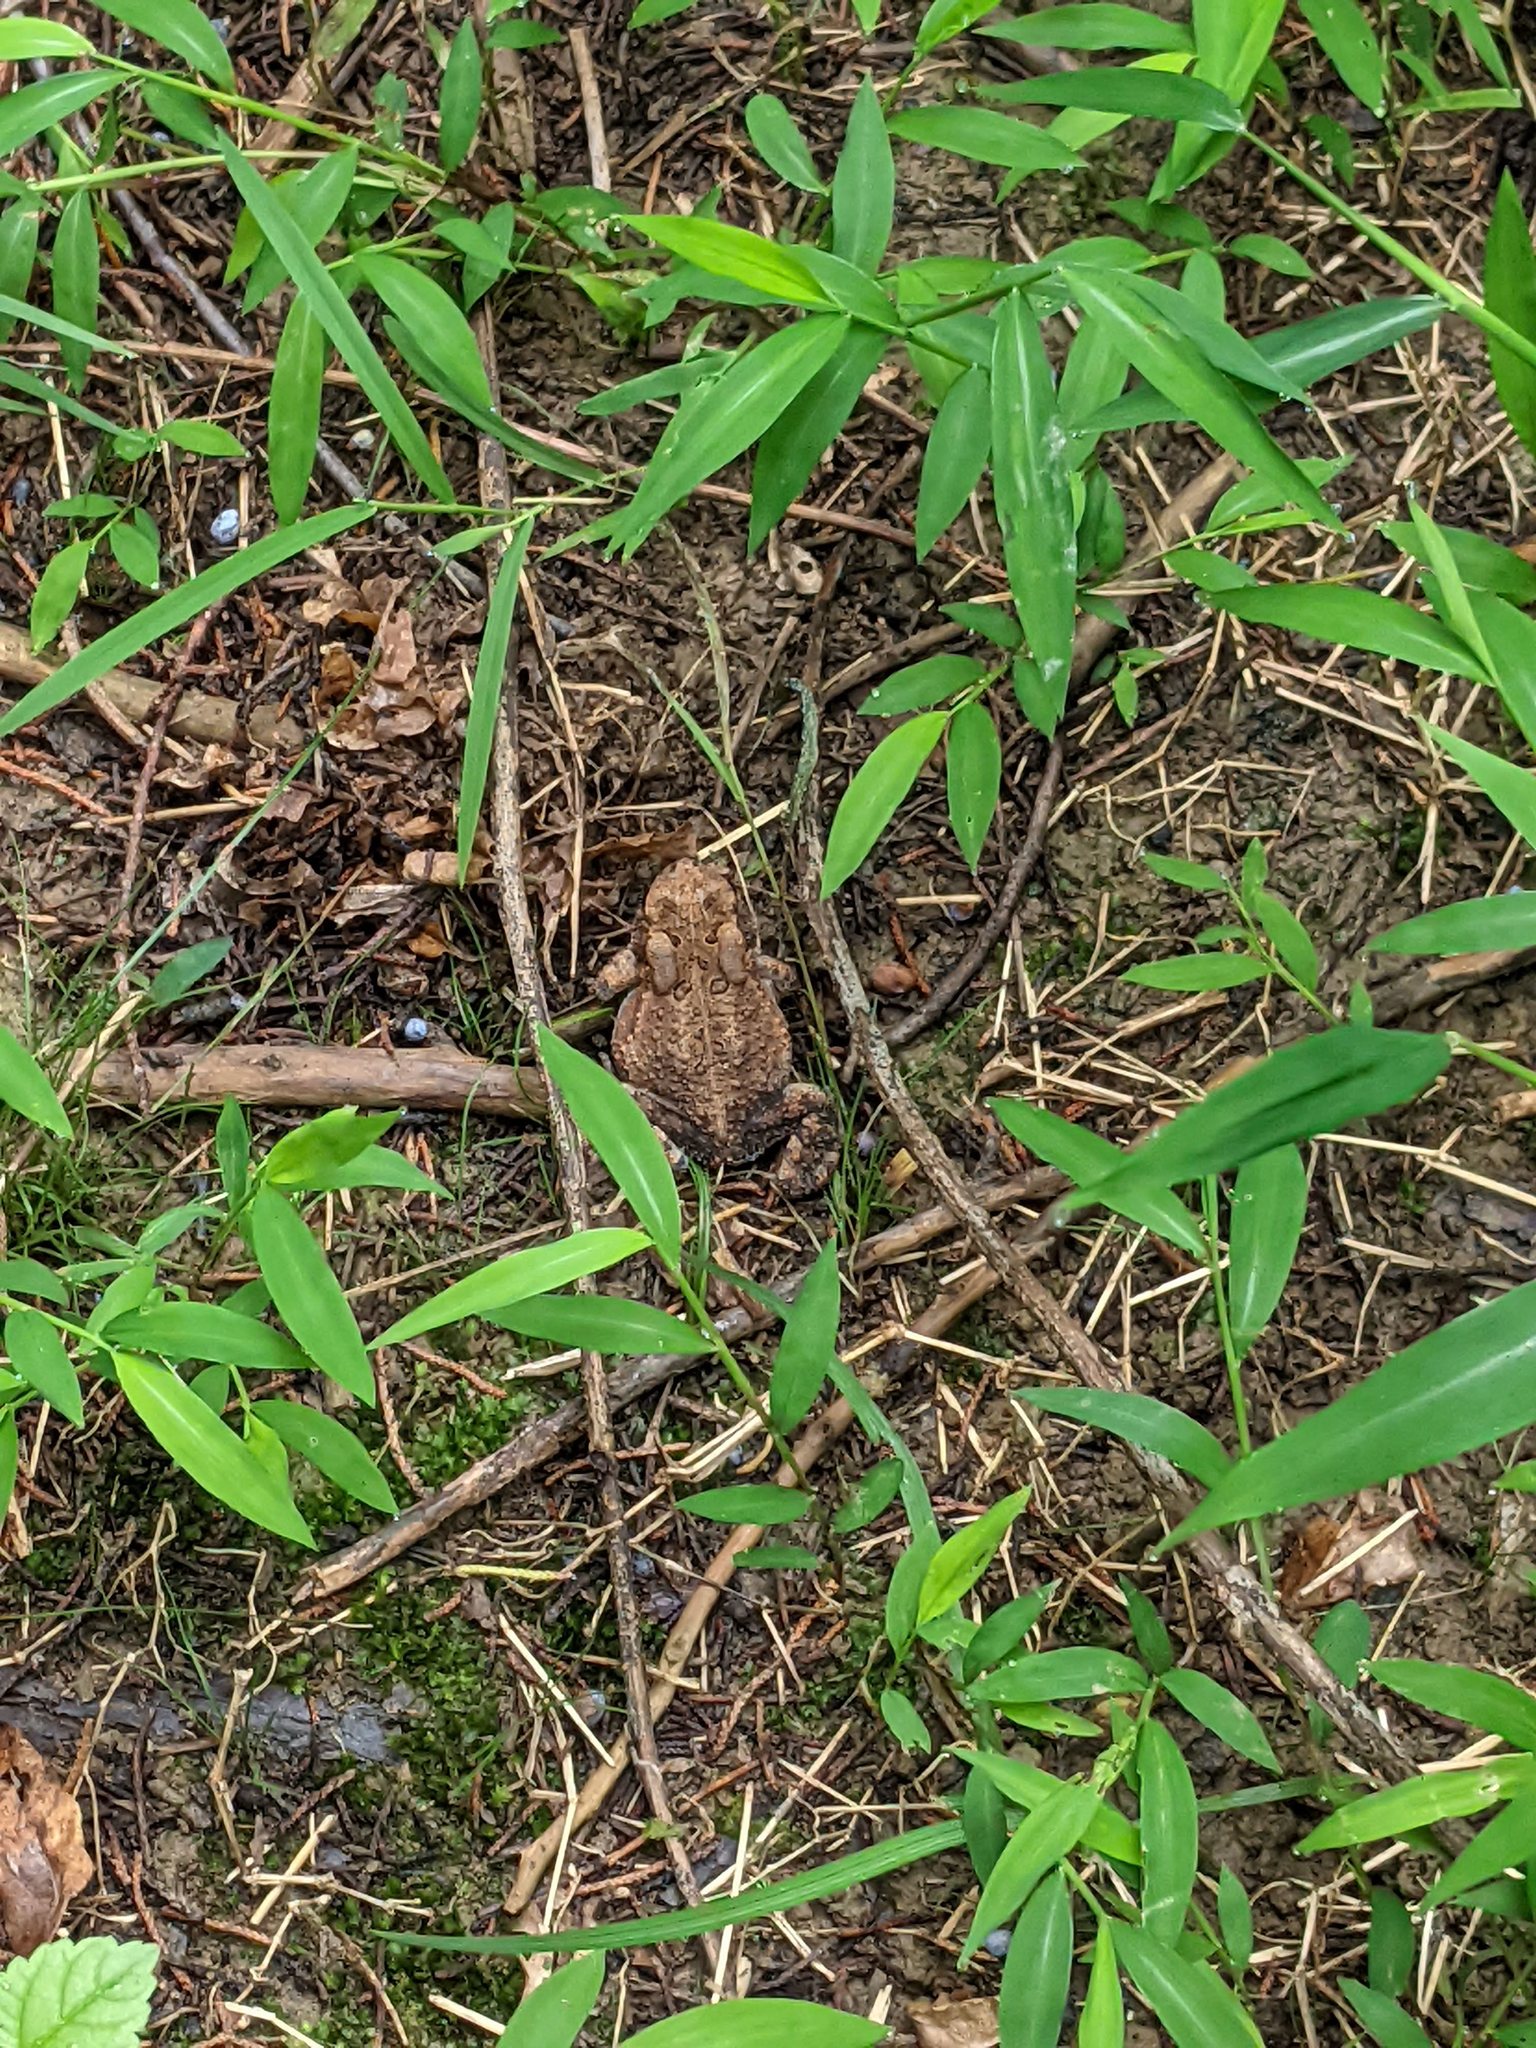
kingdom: Plantae
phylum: Tracheophyta
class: Liliopsida
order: Poales
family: Poaceae
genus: Microstegium
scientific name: Microstegium vimineum
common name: Japanese stiltgrass
